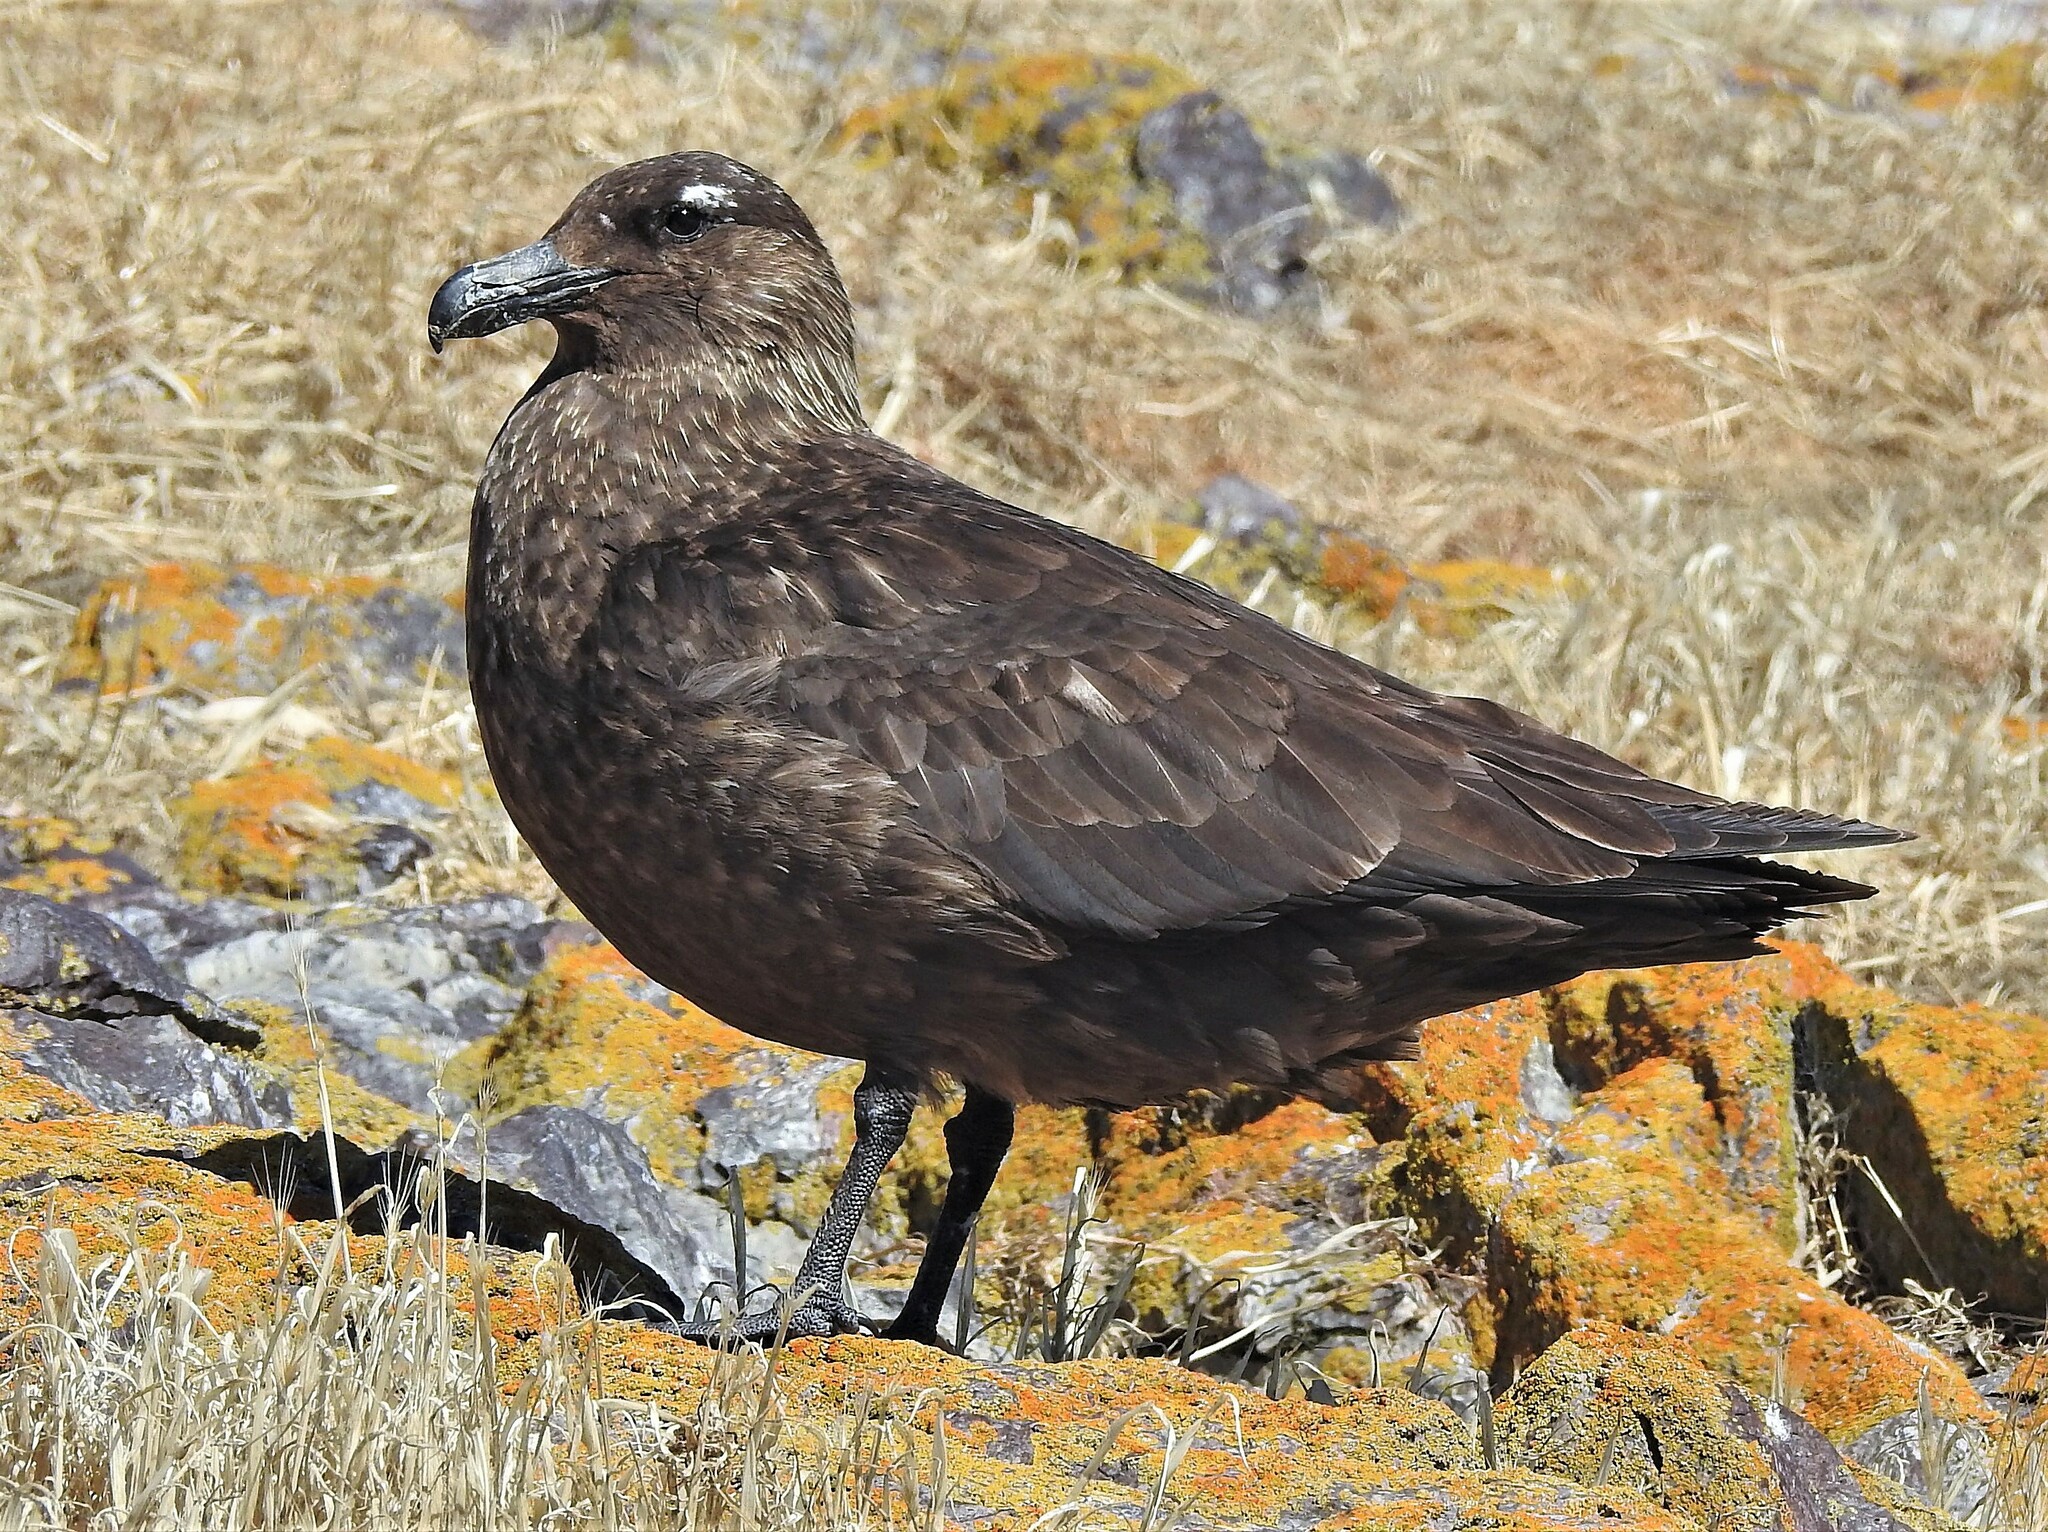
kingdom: Animalia
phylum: Chordata
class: Aves
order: Charadriiformes
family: Stercorariidae
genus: Stercorarius
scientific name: Stercorarius antarcticus
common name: Brown skua
